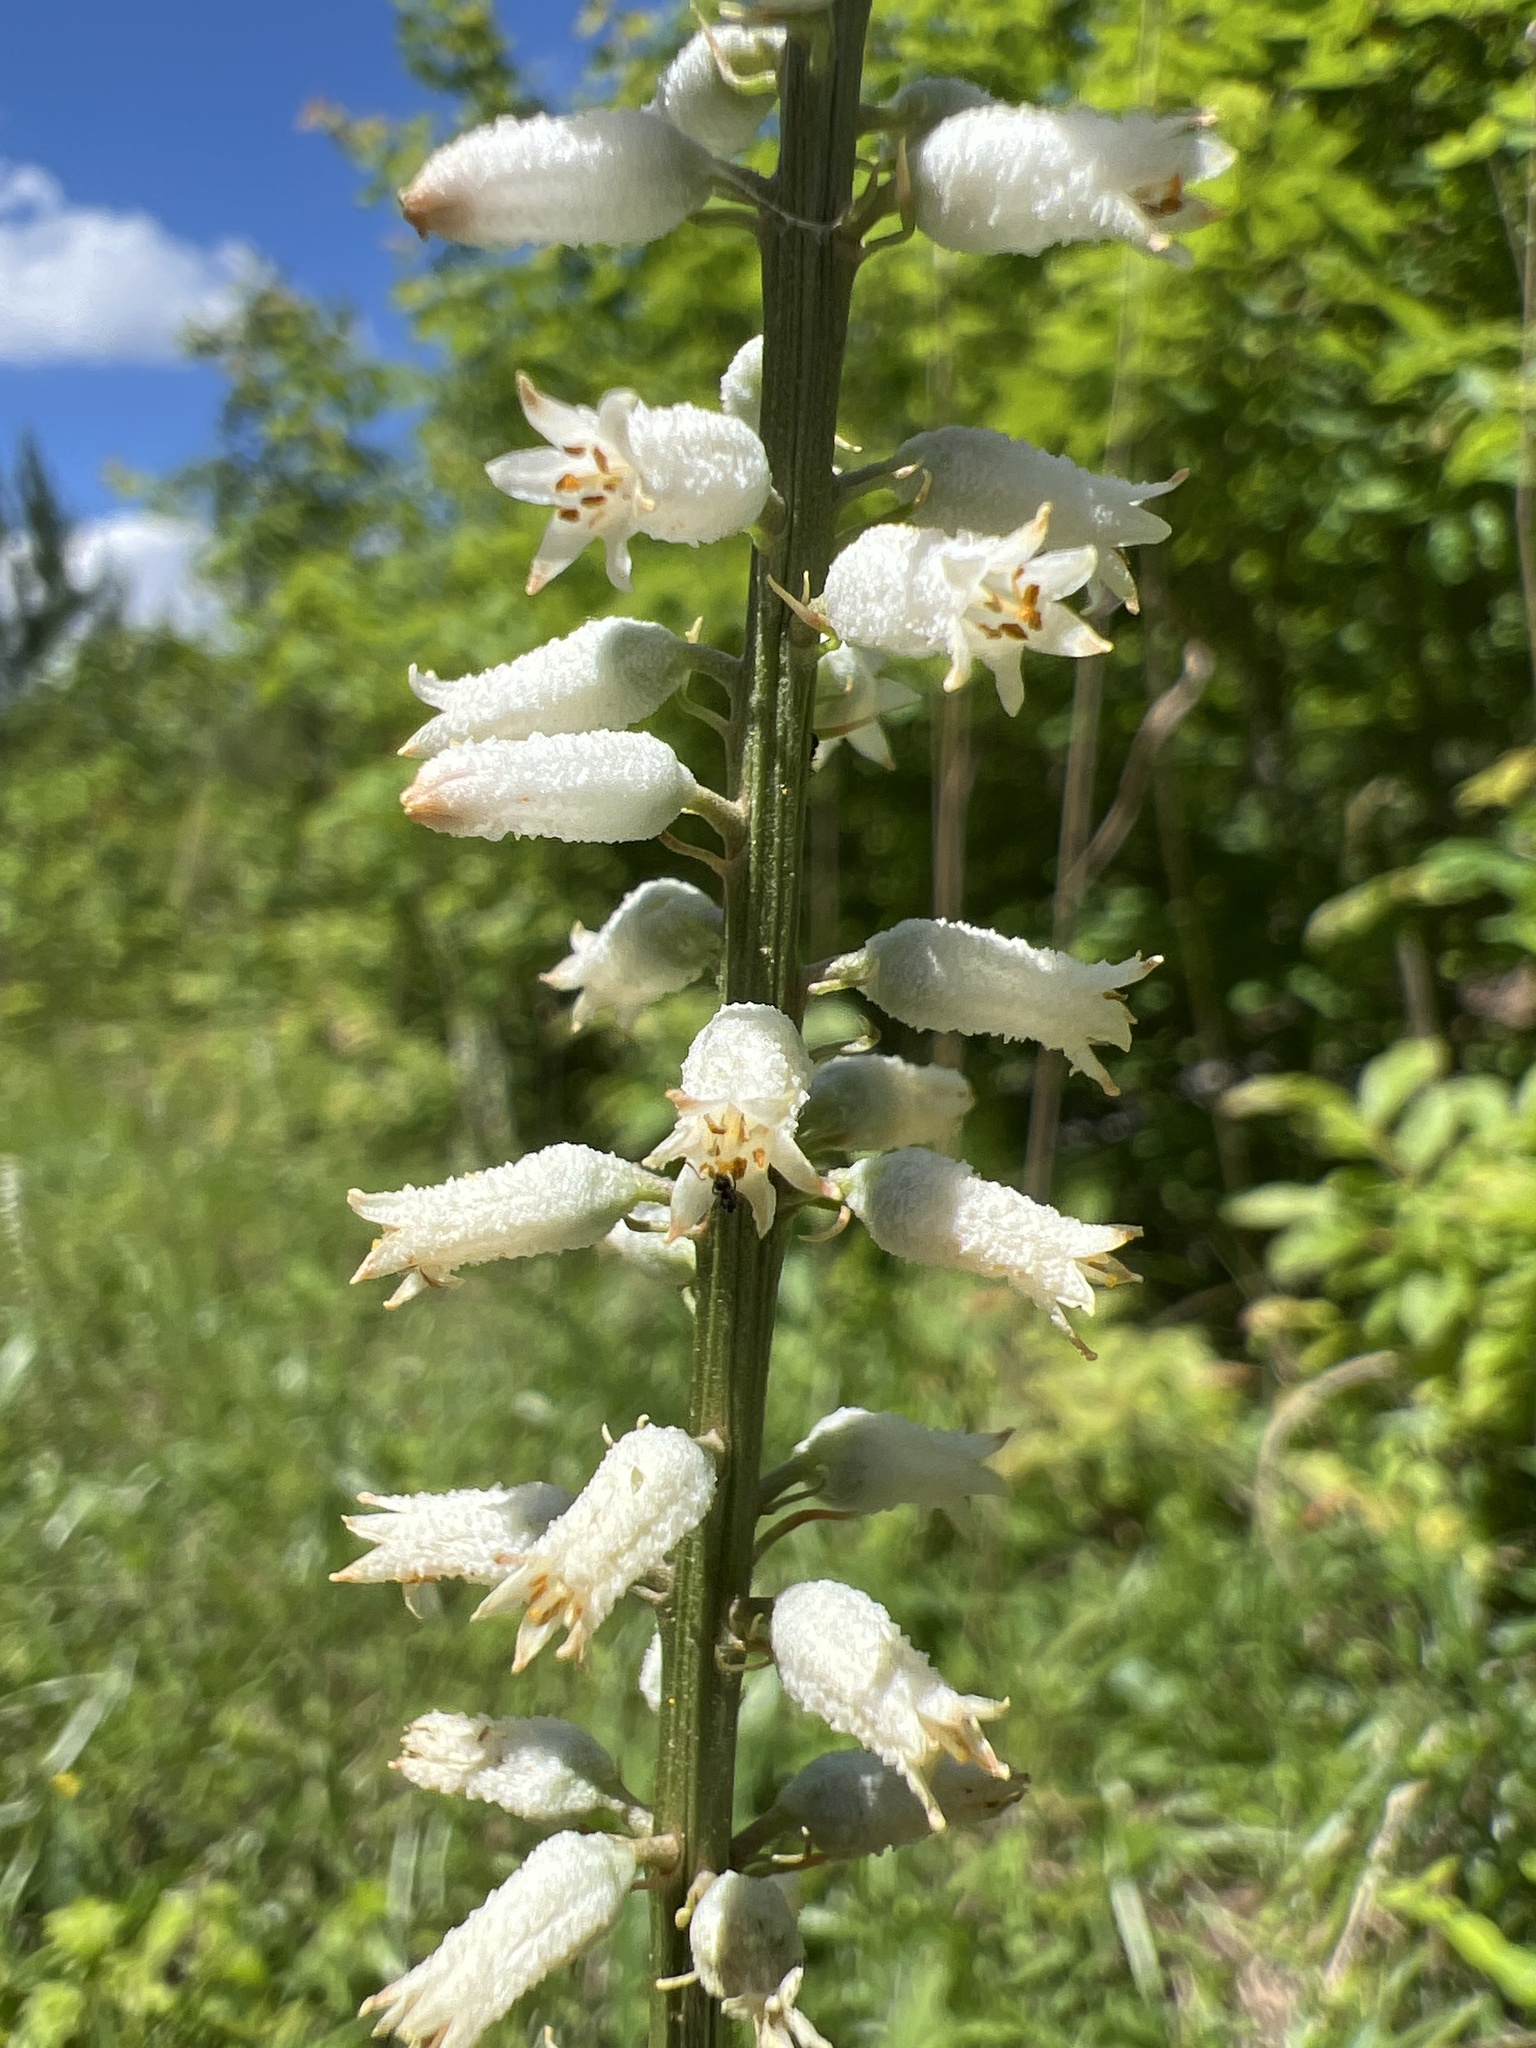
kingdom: Plantae
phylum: Tracheophyta
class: Liliopsida
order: Dioscoreales
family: Nartheciaceae
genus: Aletris
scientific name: Aletris farinosa
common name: Colicroot
